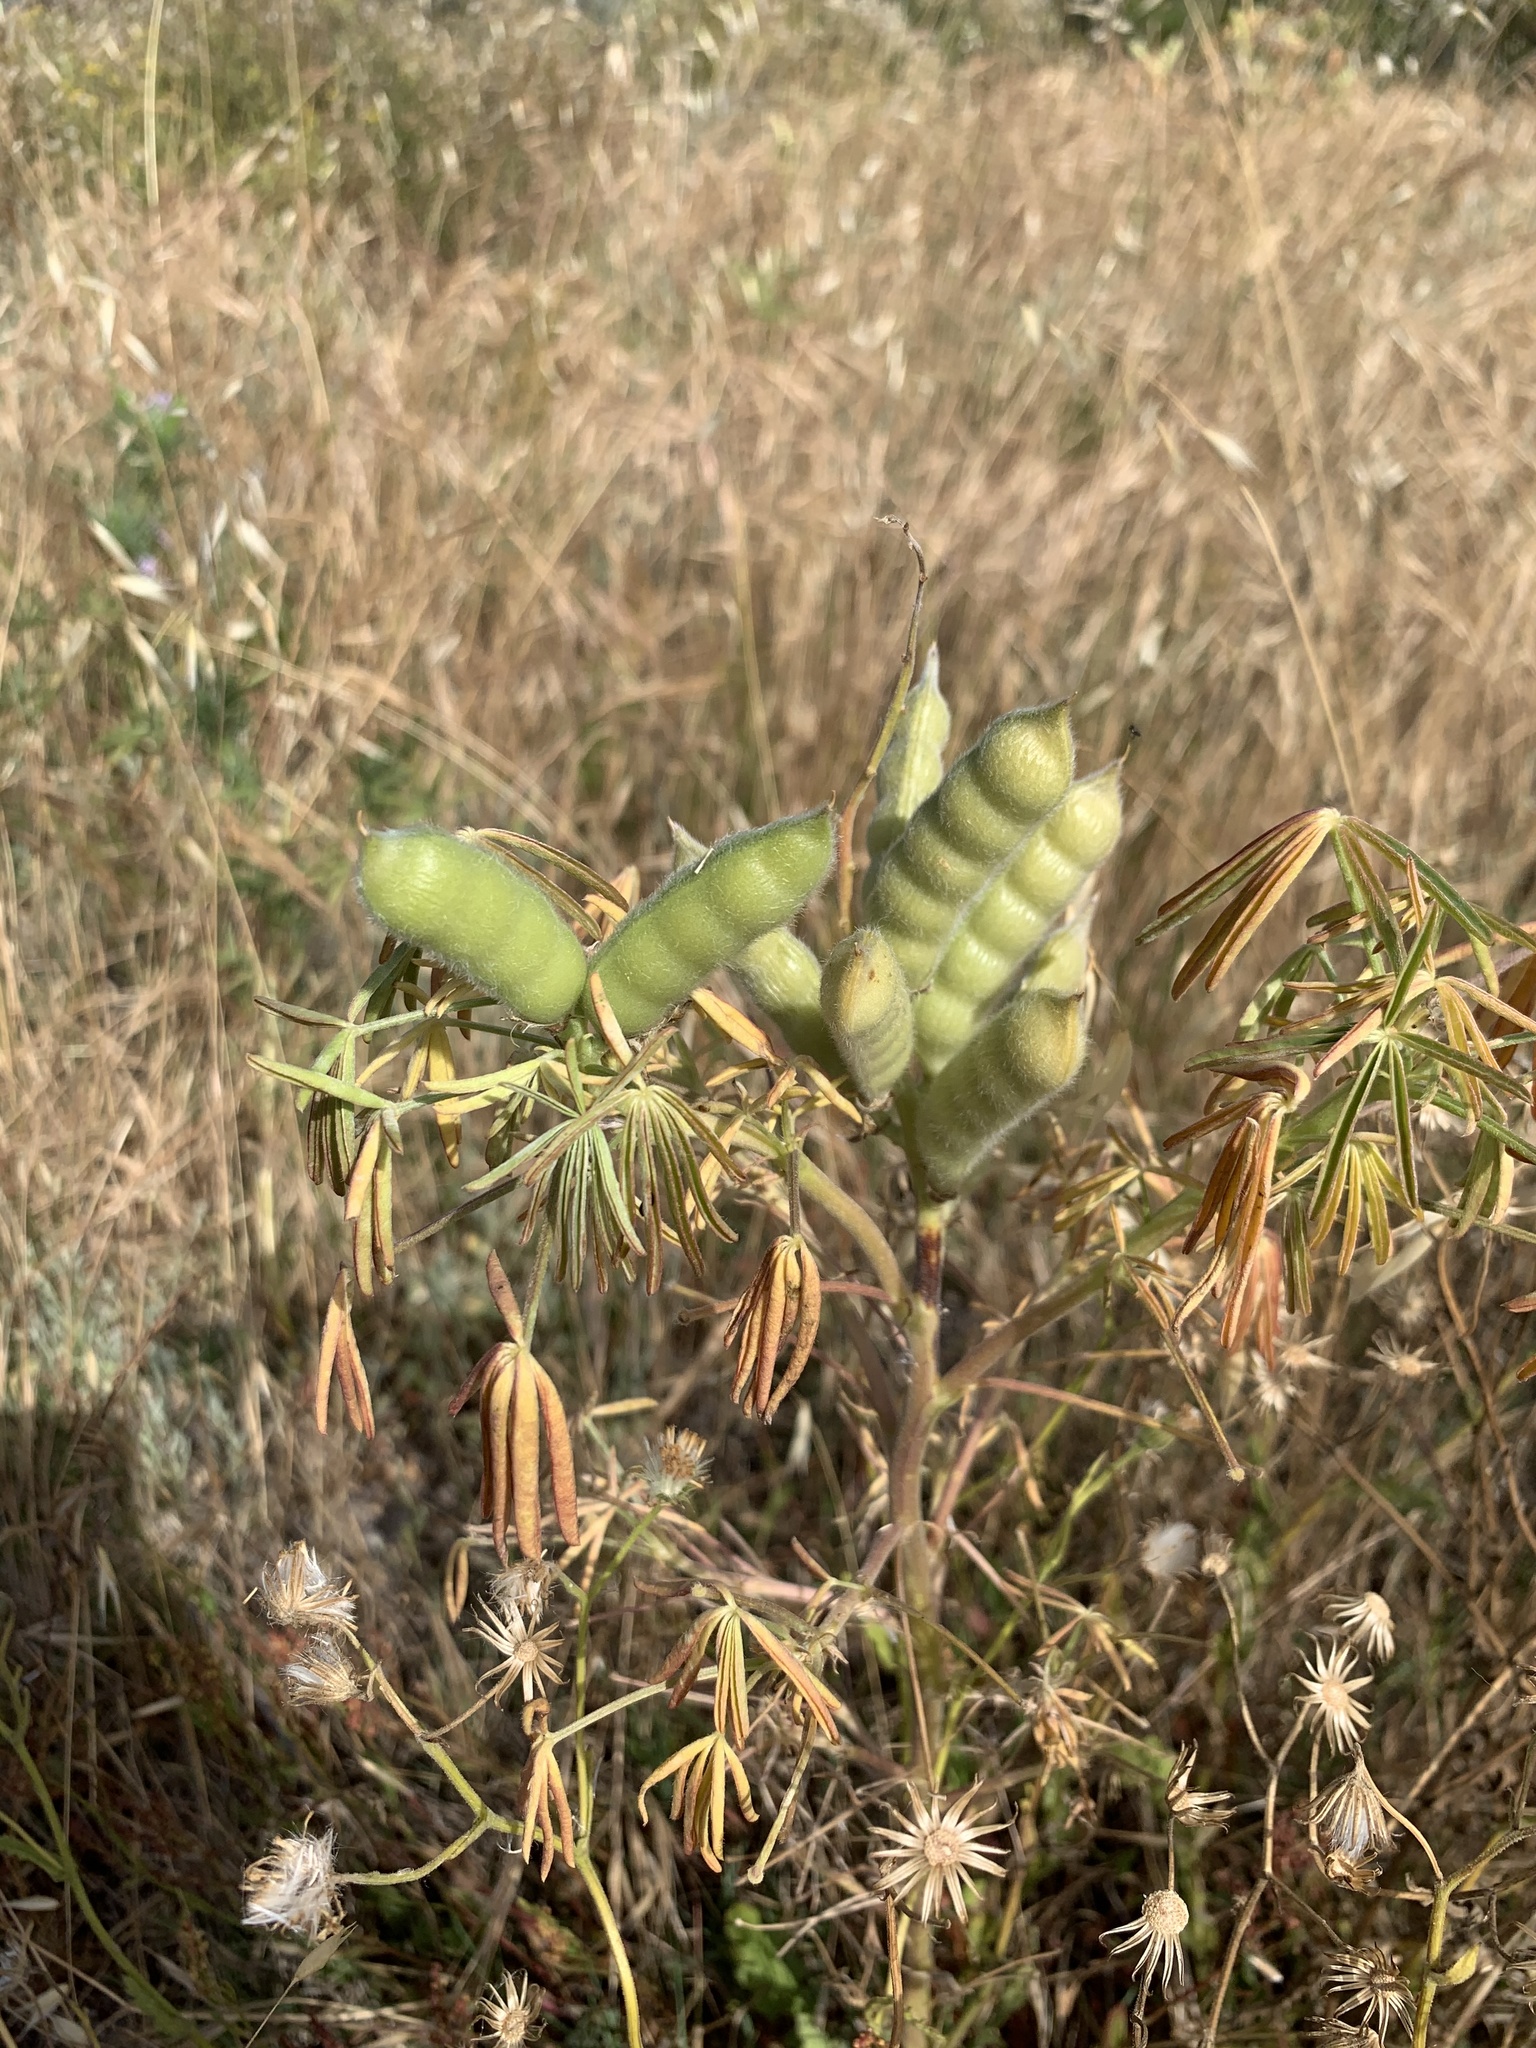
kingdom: Plantae
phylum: Tracheophyta
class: Magnoliopsida
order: Fabales
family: Fabaceae
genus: Lupinus
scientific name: Lupinus angustifolius
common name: Narrow-leaved lupin
